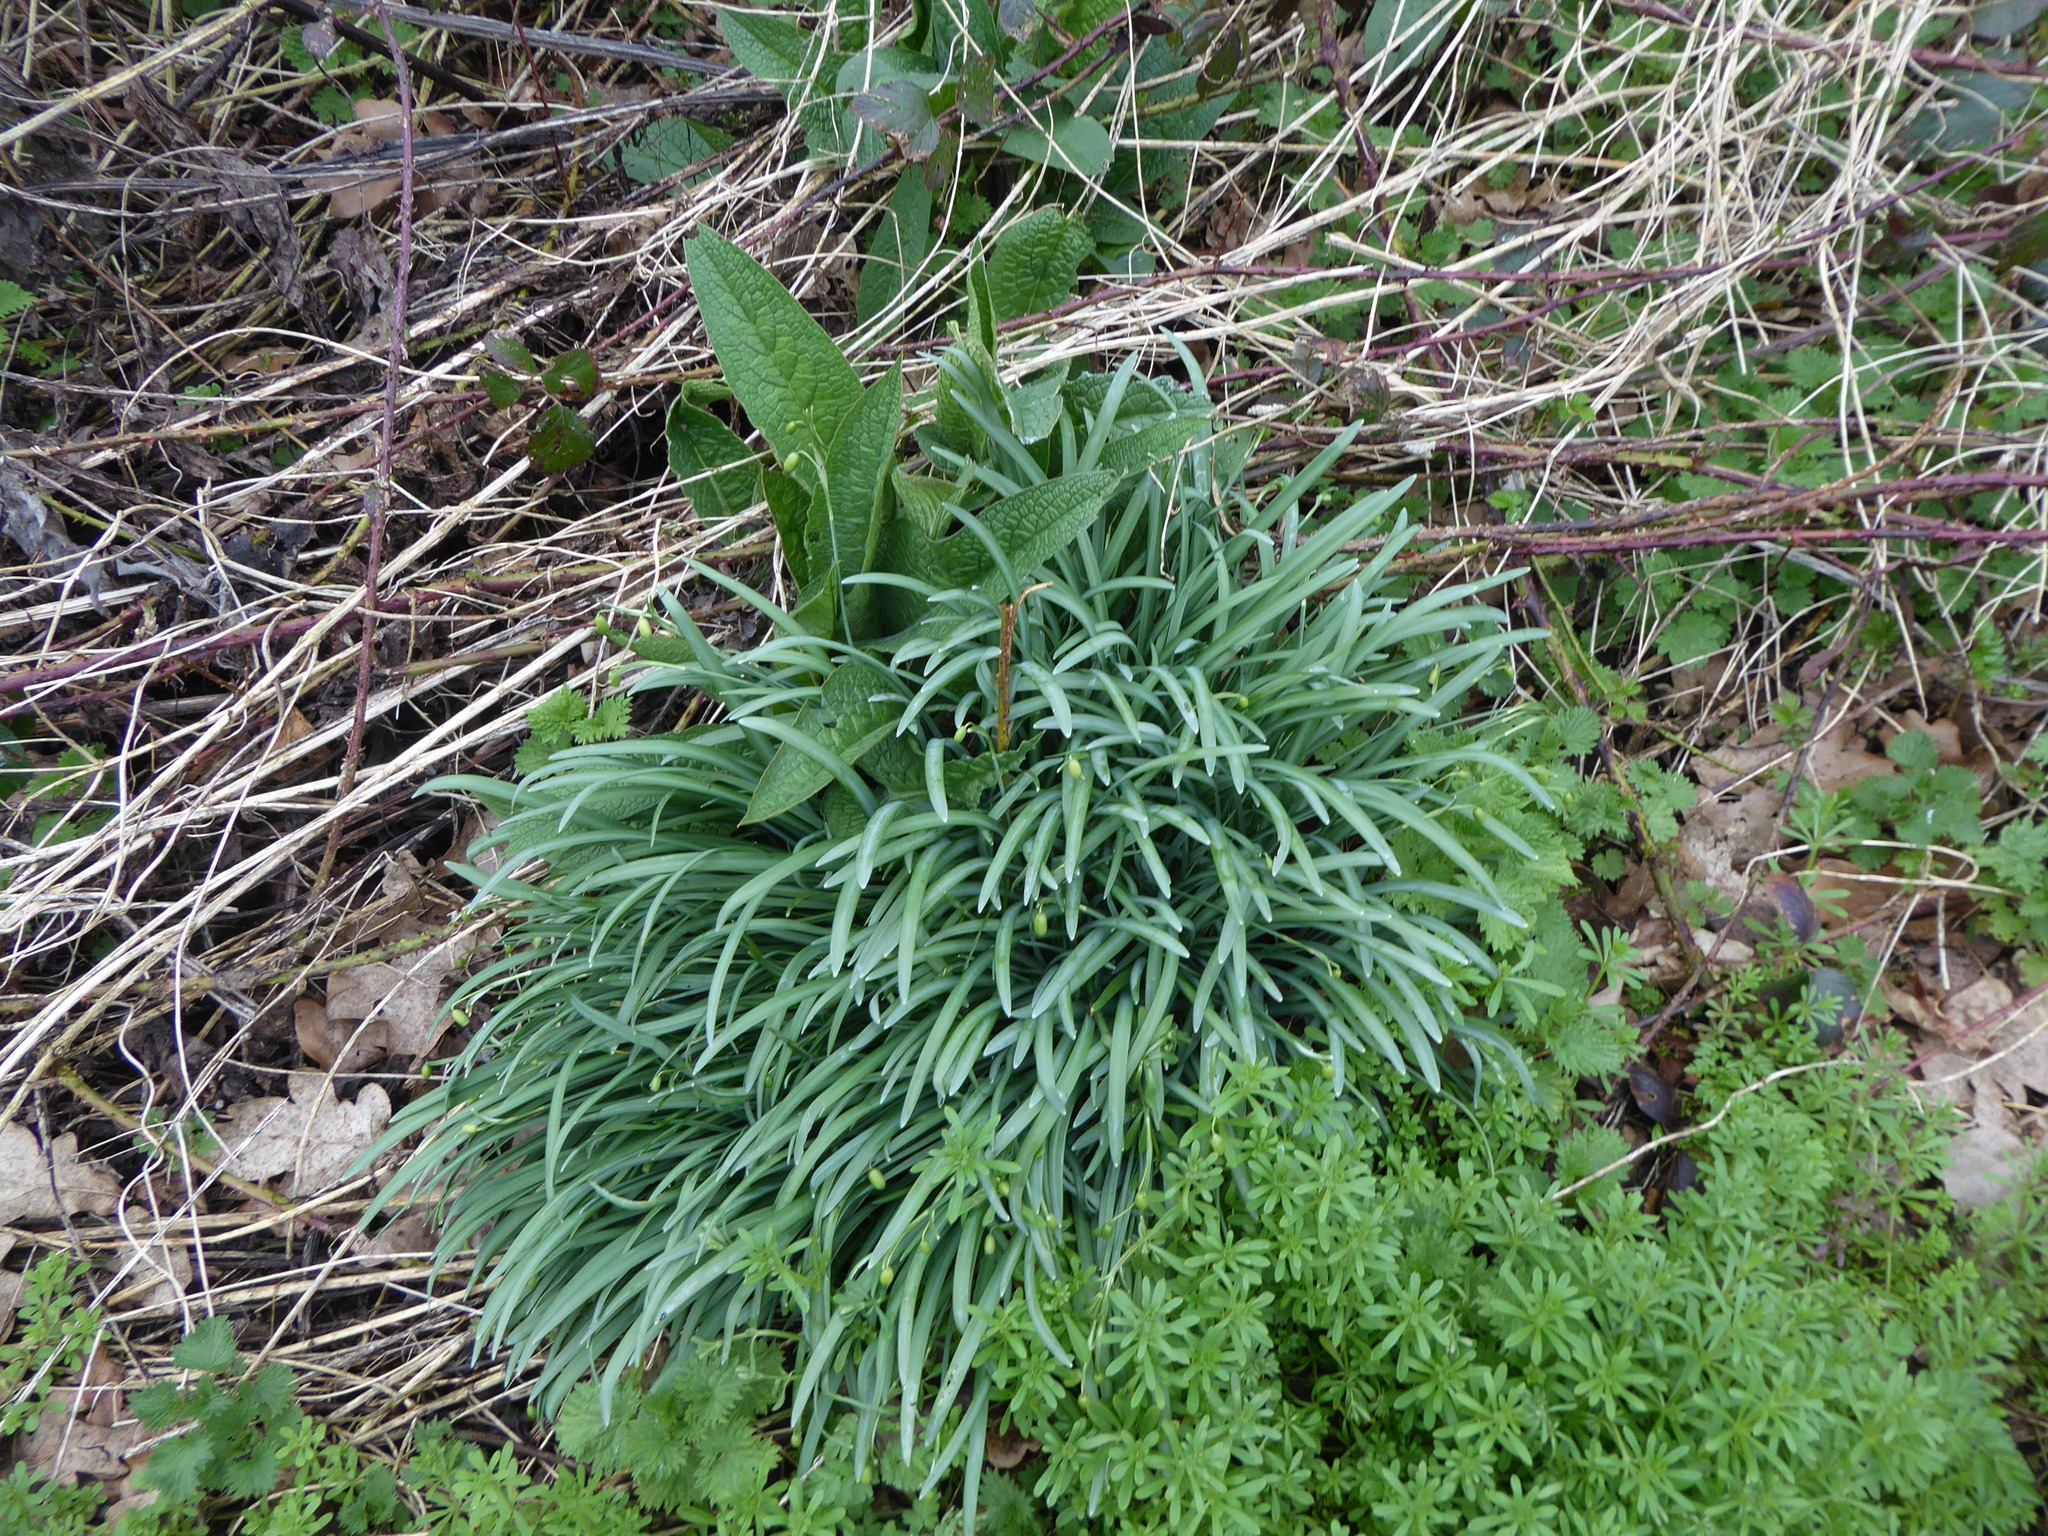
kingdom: Plantae
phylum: Tracheophyta
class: Liliopsida
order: Asparagales
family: Amaryllidaceae
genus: Galanthus
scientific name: Galanthus nivalis
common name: Snowdrop
